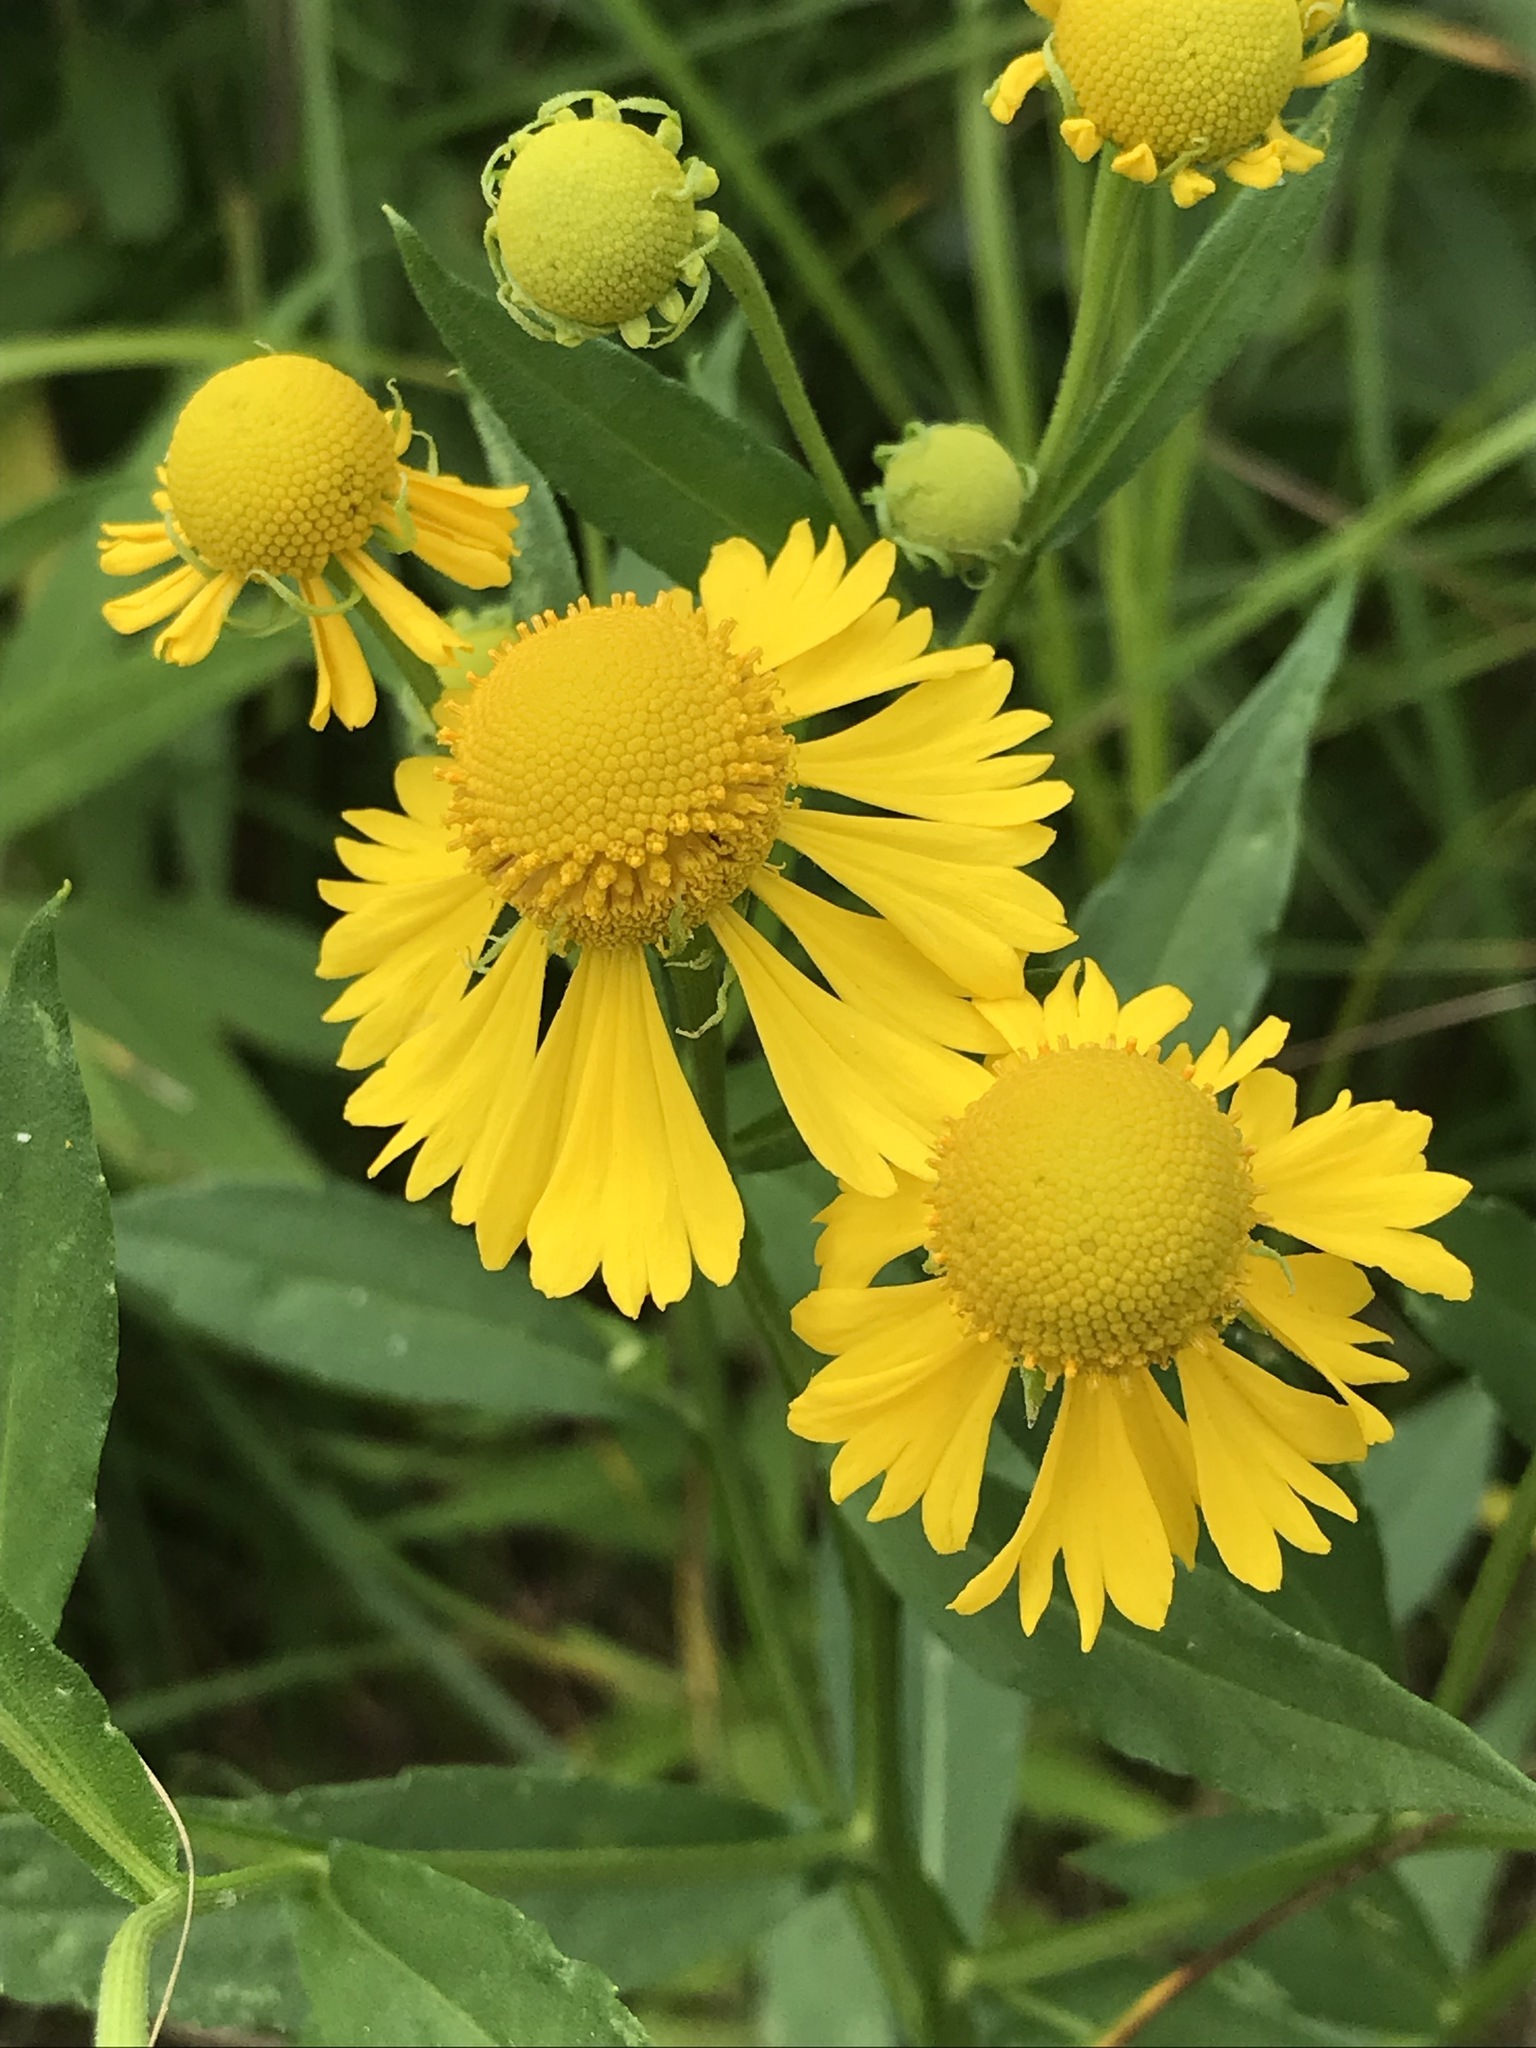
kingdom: Plantae
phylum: Tracheophyta
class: Magnoliopsida
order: Asterales
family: Asteraceae
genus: Helenium
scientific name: Helenium autumnale
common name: Sneezeweed
